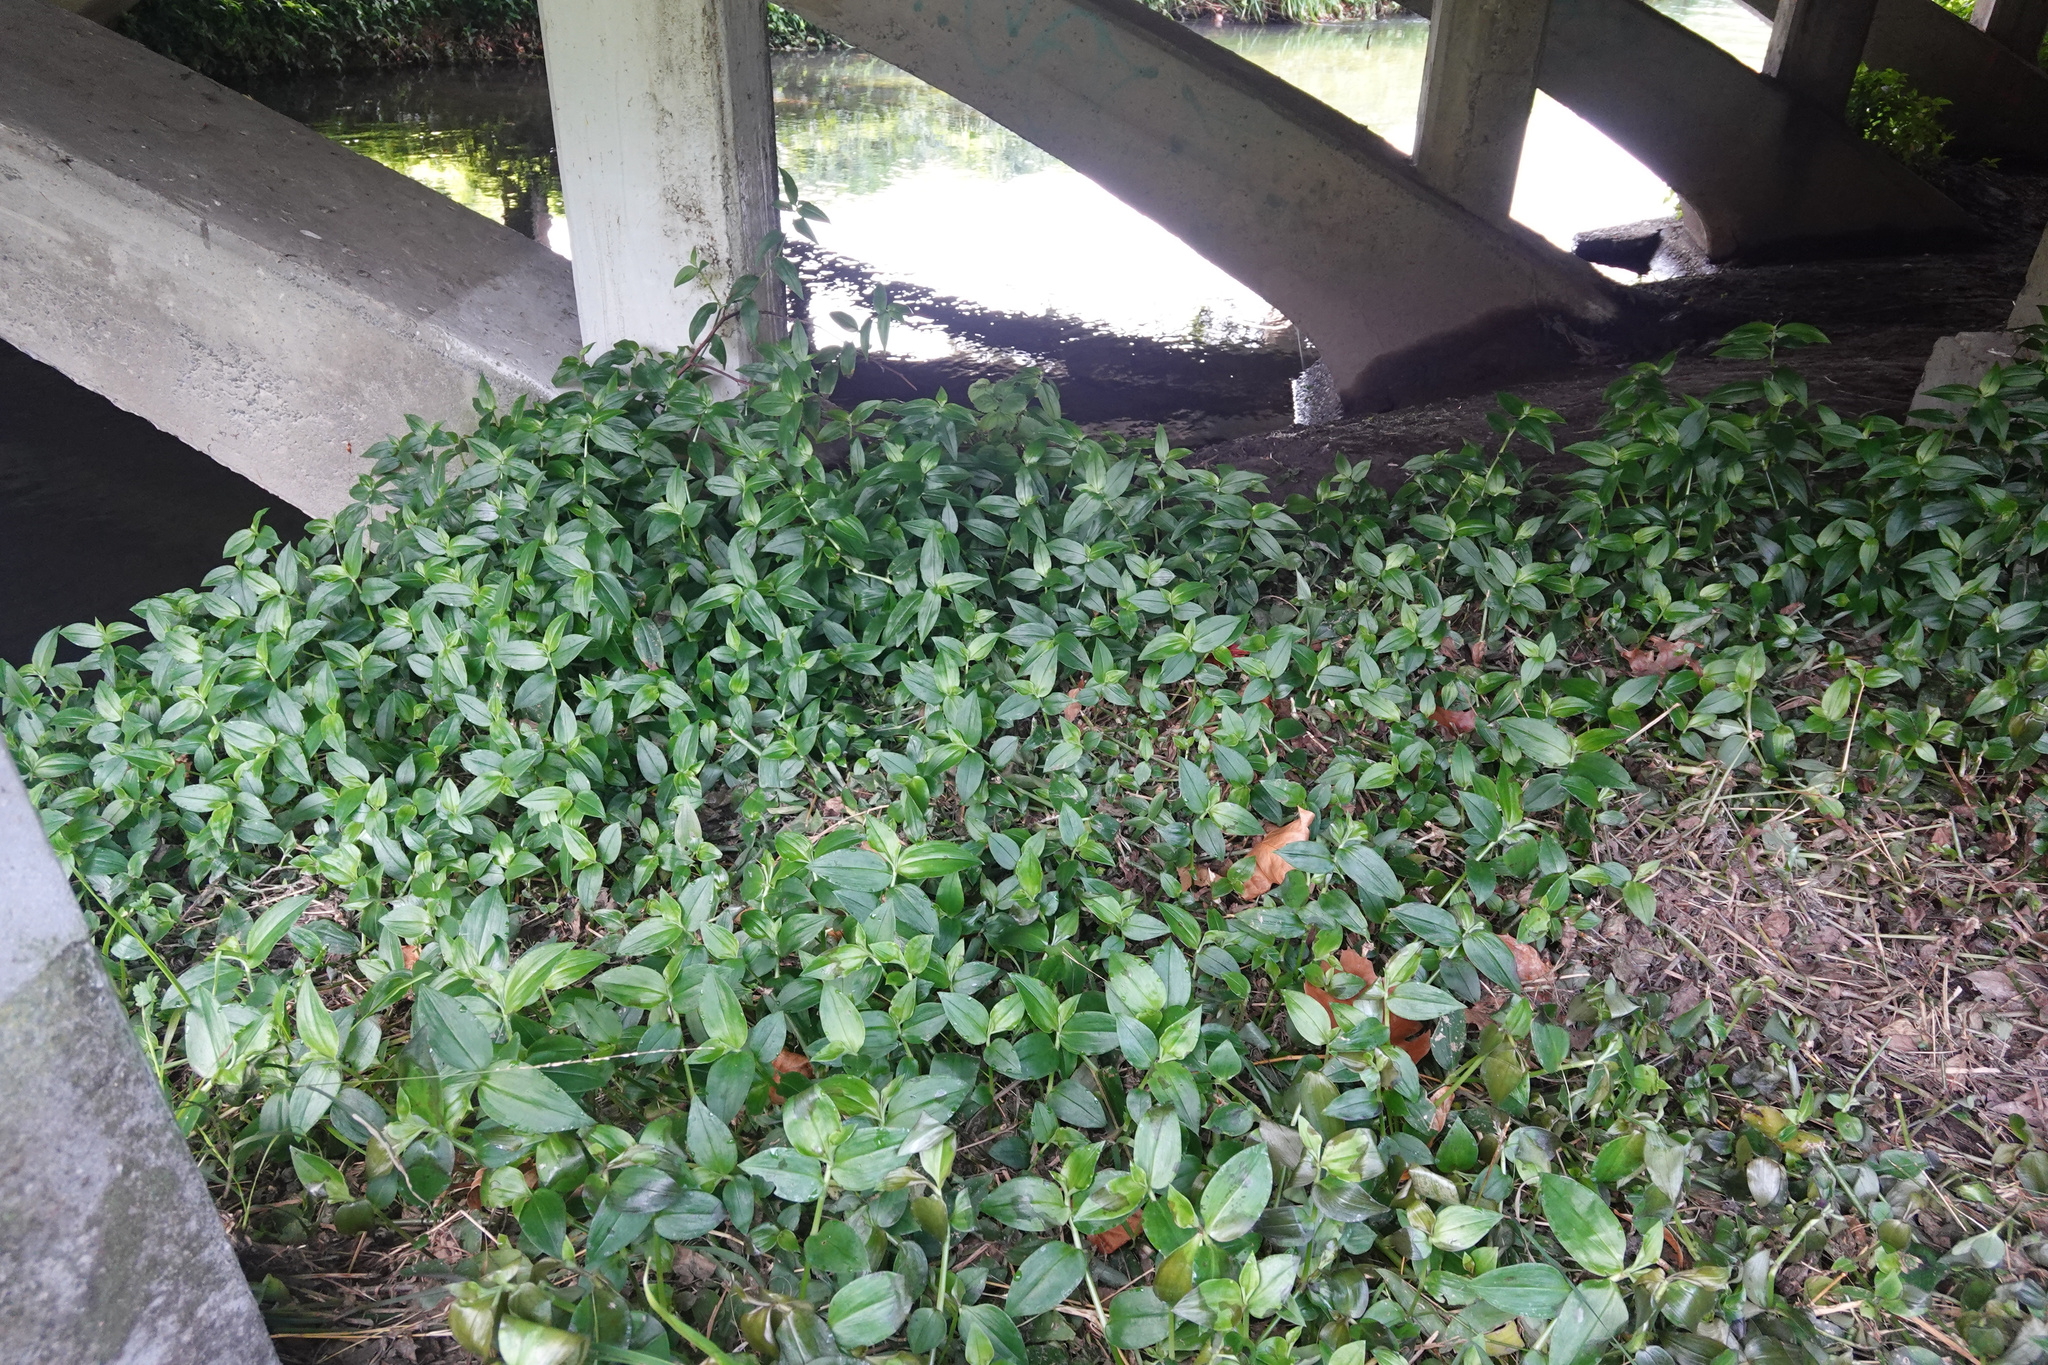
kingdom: Plantae
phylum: Tracheophyta
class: Liliopsida
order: Commelinales
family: Commelinaceae
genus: Tradescantia
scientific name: Tradescantia fluminensis
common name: Wandering-jew
